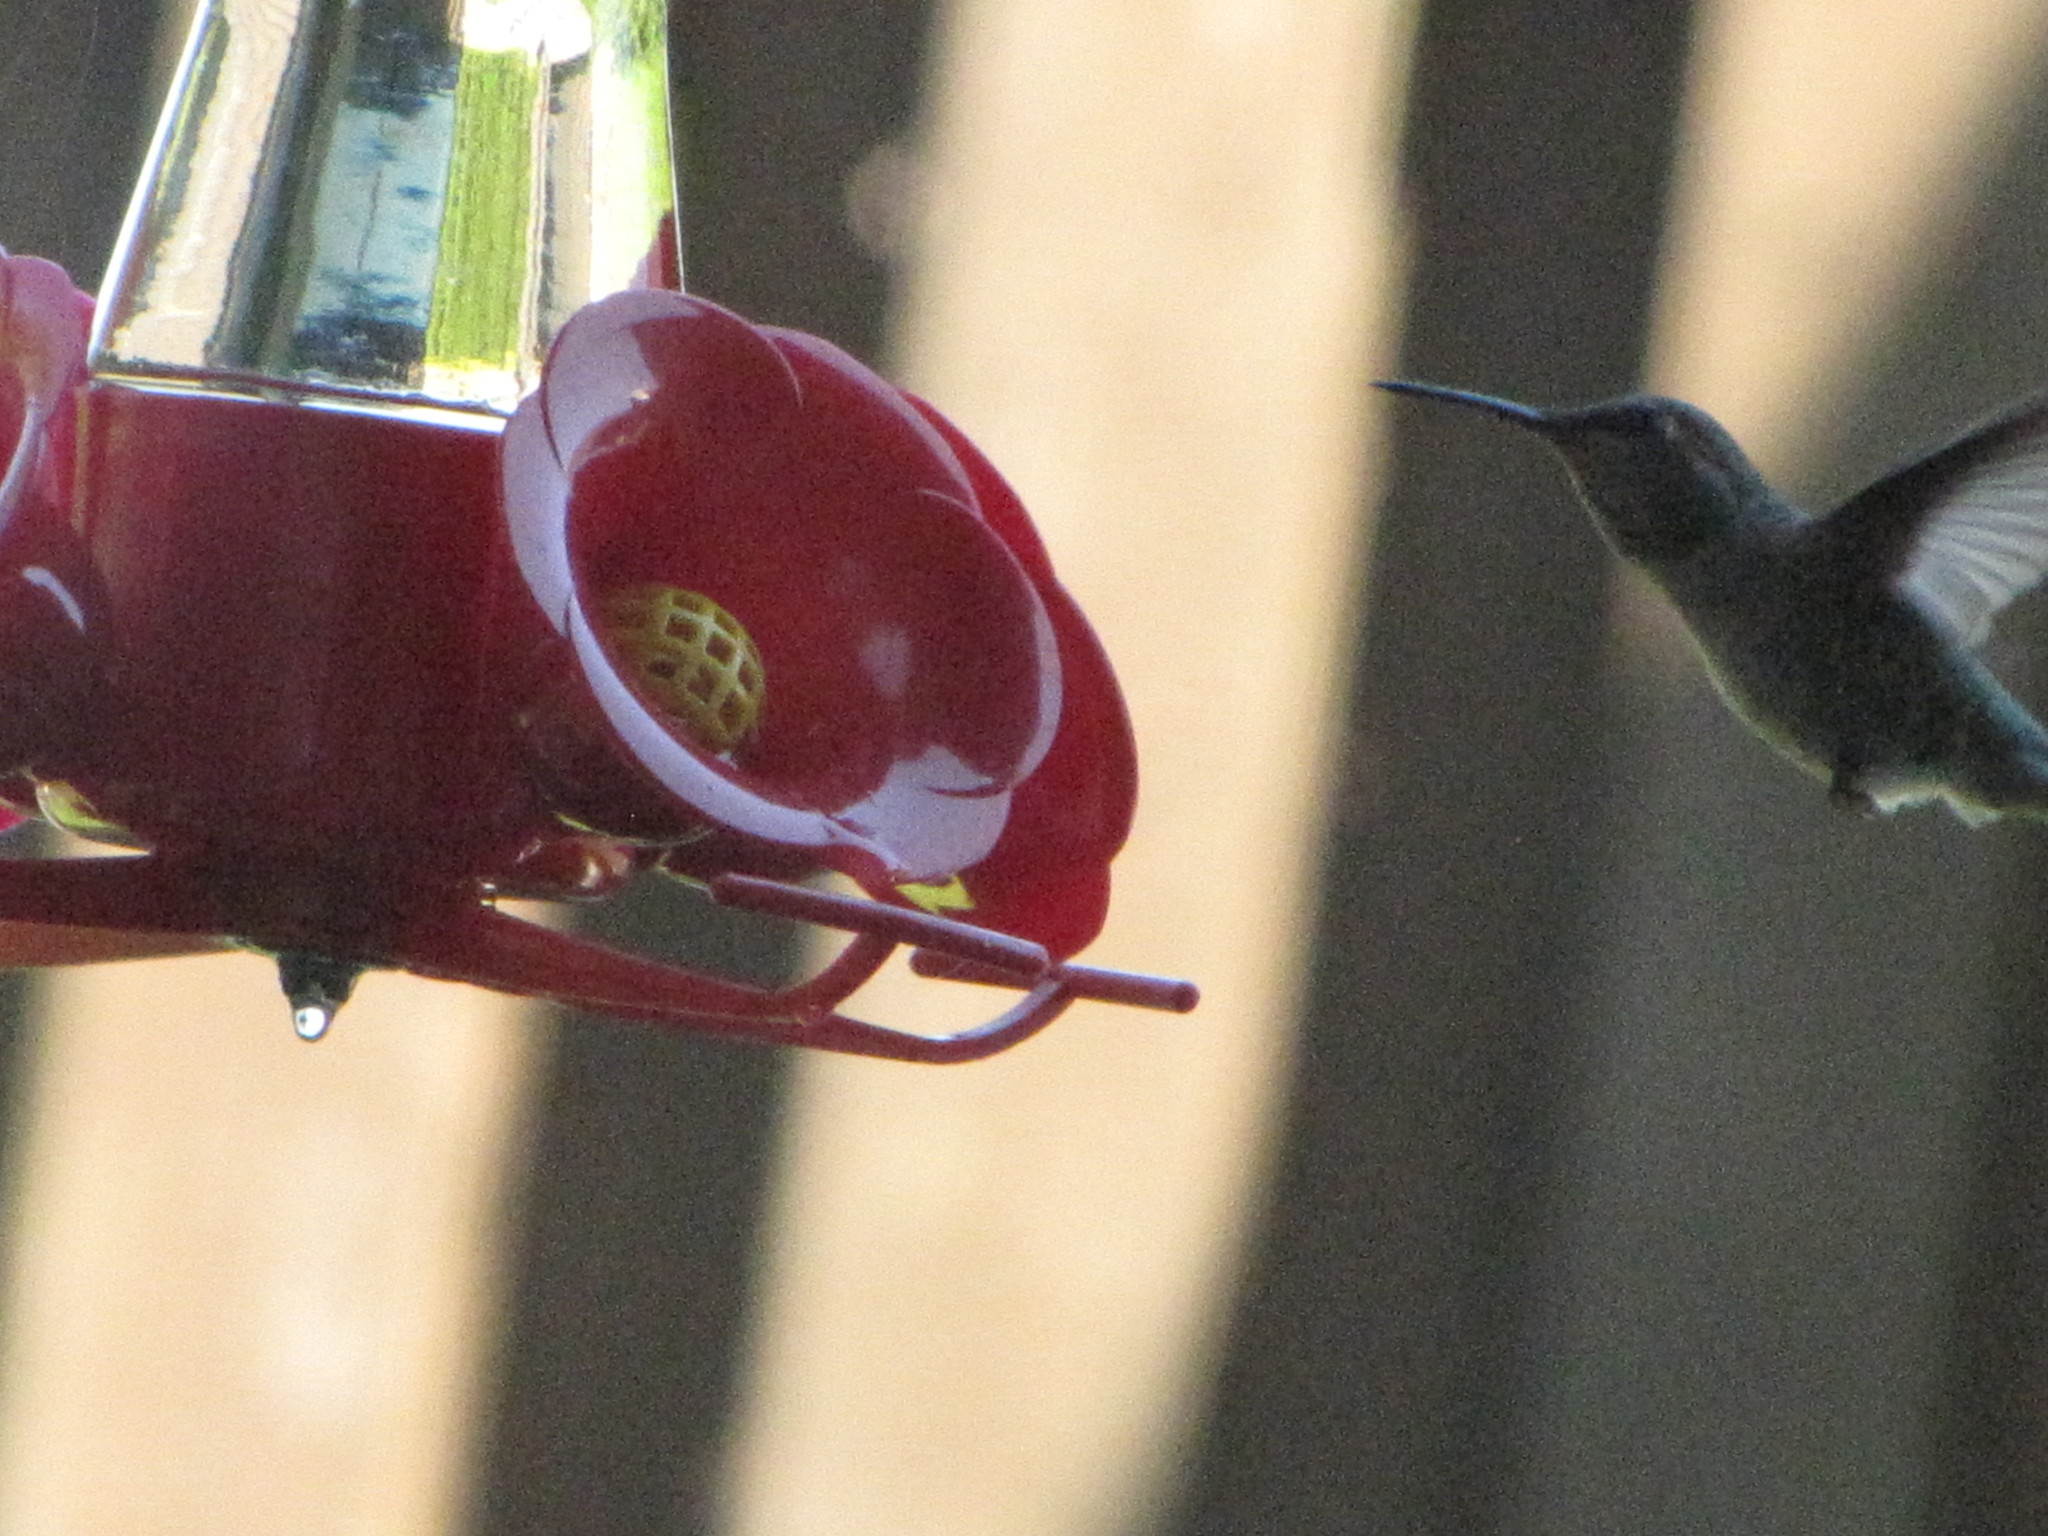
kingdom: Animalia
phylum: Chordata
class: Aves
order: Apodiformes
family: Trochilidae
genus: Calypte
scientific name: Calypte anna
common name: Anna's hummingbird
